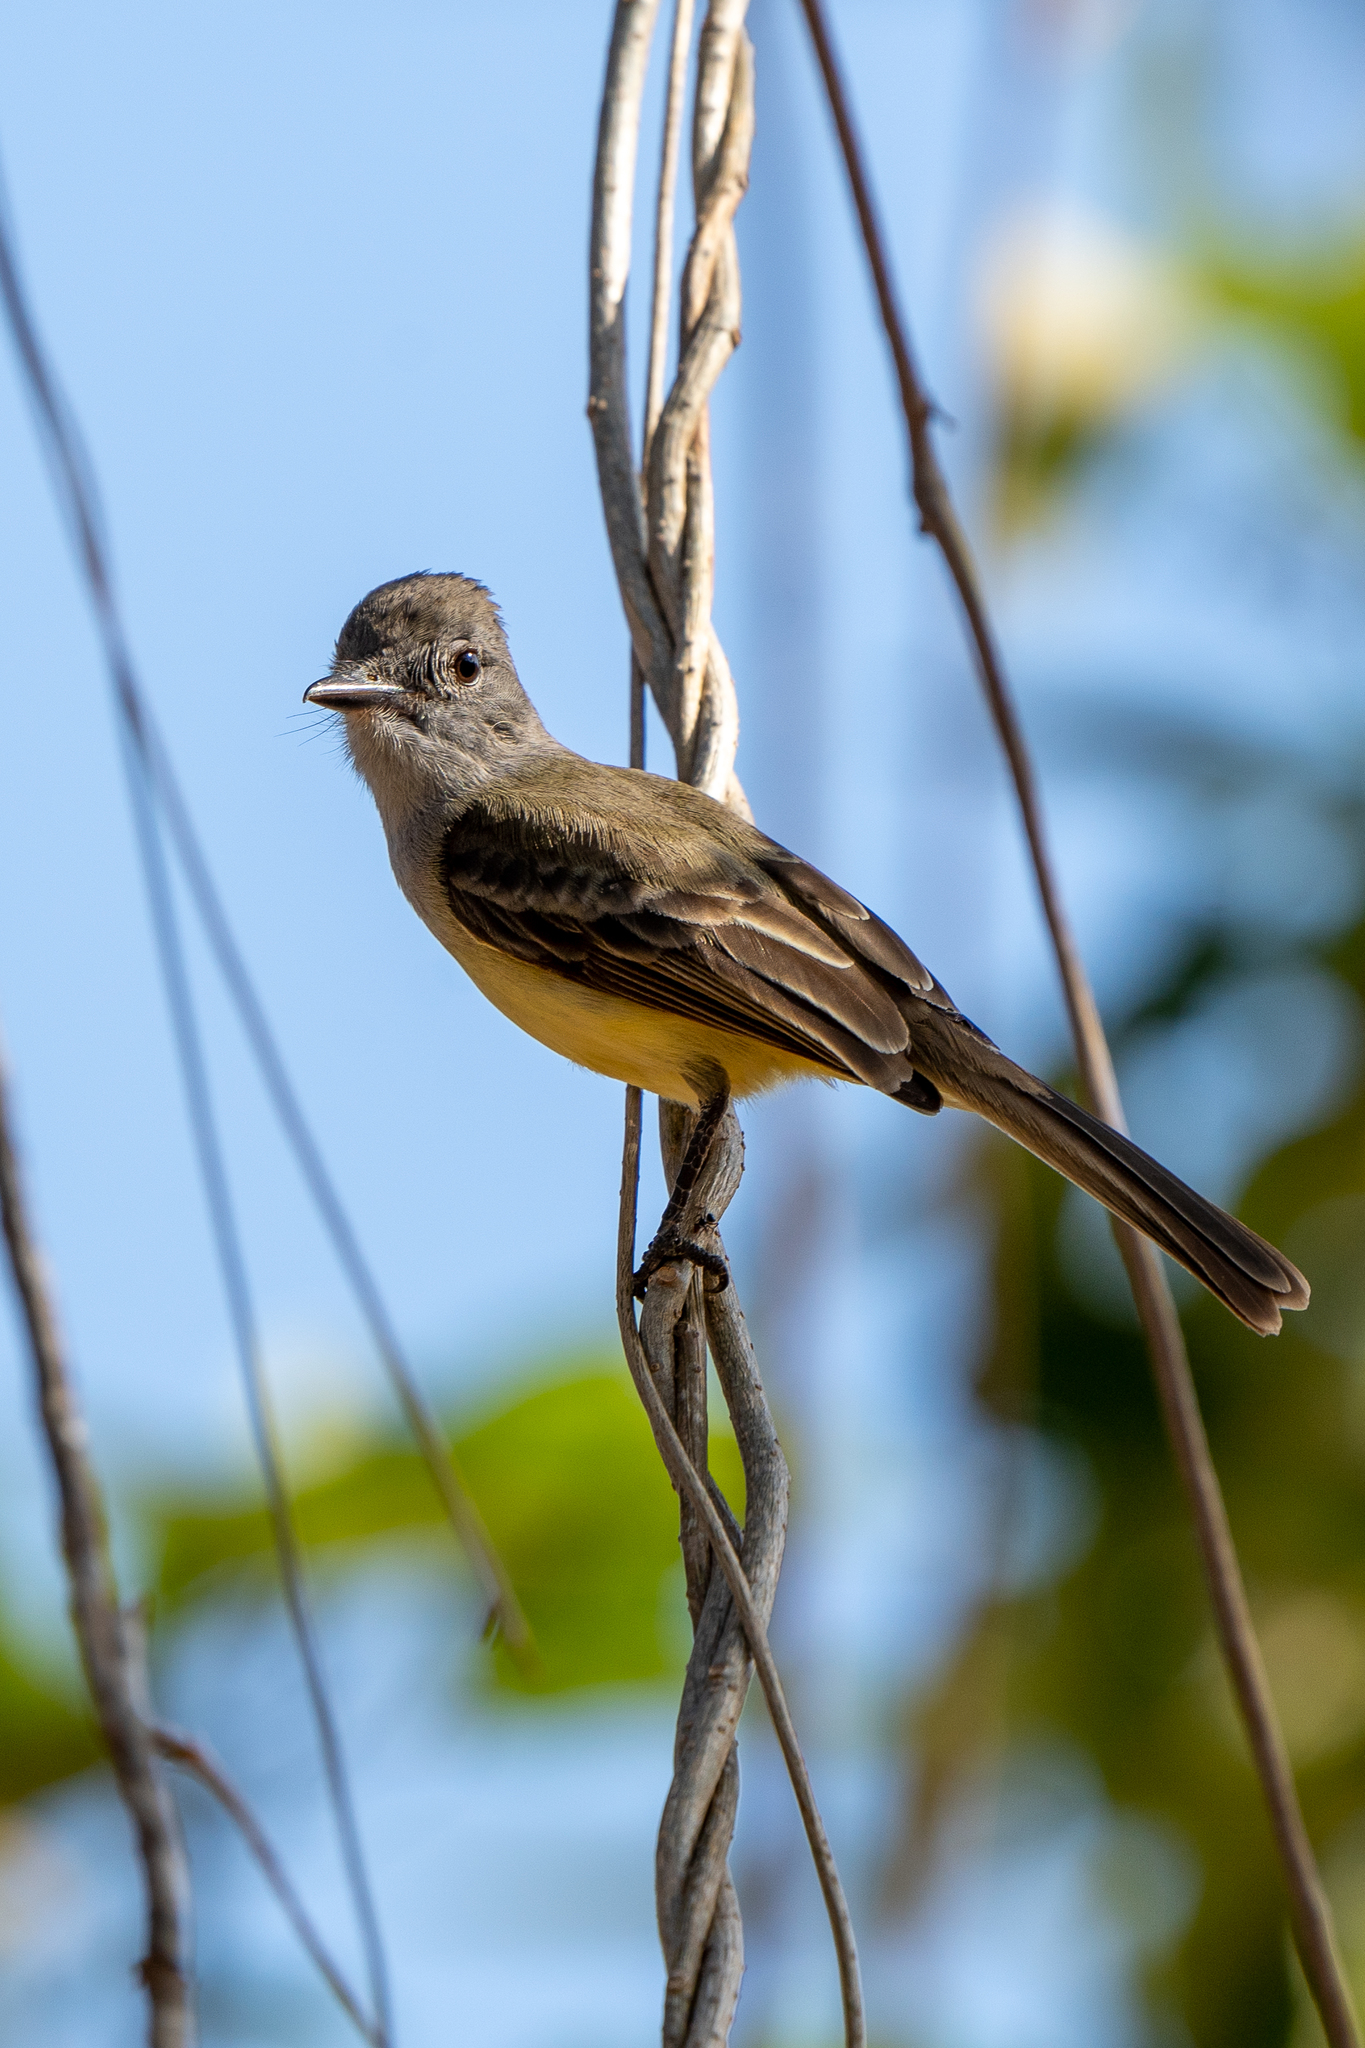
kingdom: Animalia
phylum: Chordata
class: Aves
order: Passeriformes
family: Tyrannidae
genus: Myiarchus
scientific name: Myiarchus panamensis
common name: Panama flycatcher
